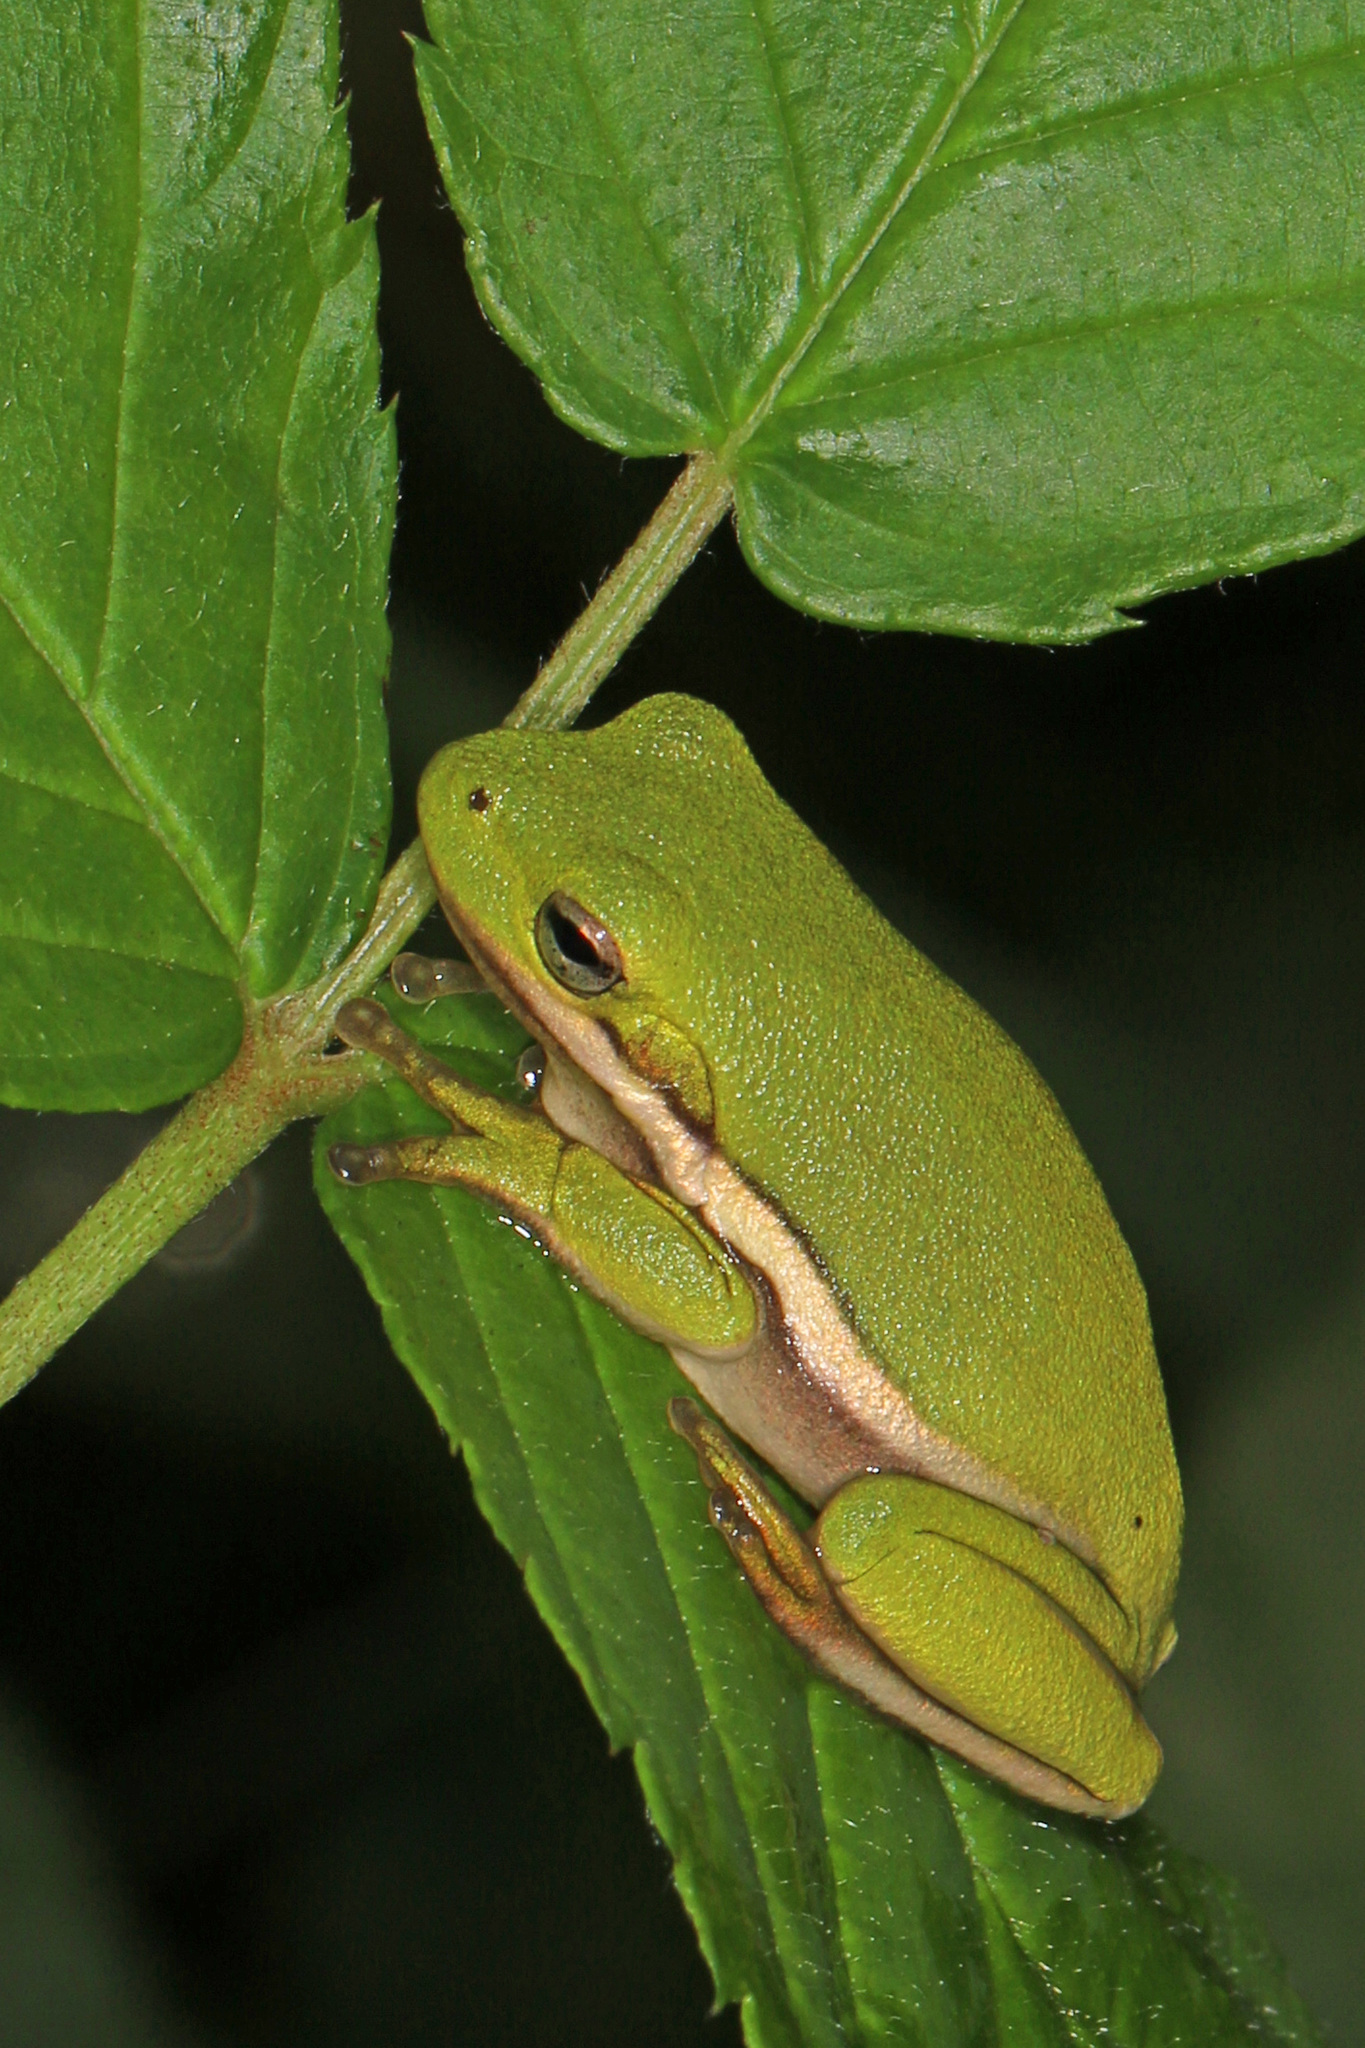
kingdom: Animalia
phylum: Chordata
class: Amphibia
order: Anura
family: Hylidae
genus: Dryophytes
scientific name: Dryophytes cinereus
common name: Green treefrog
